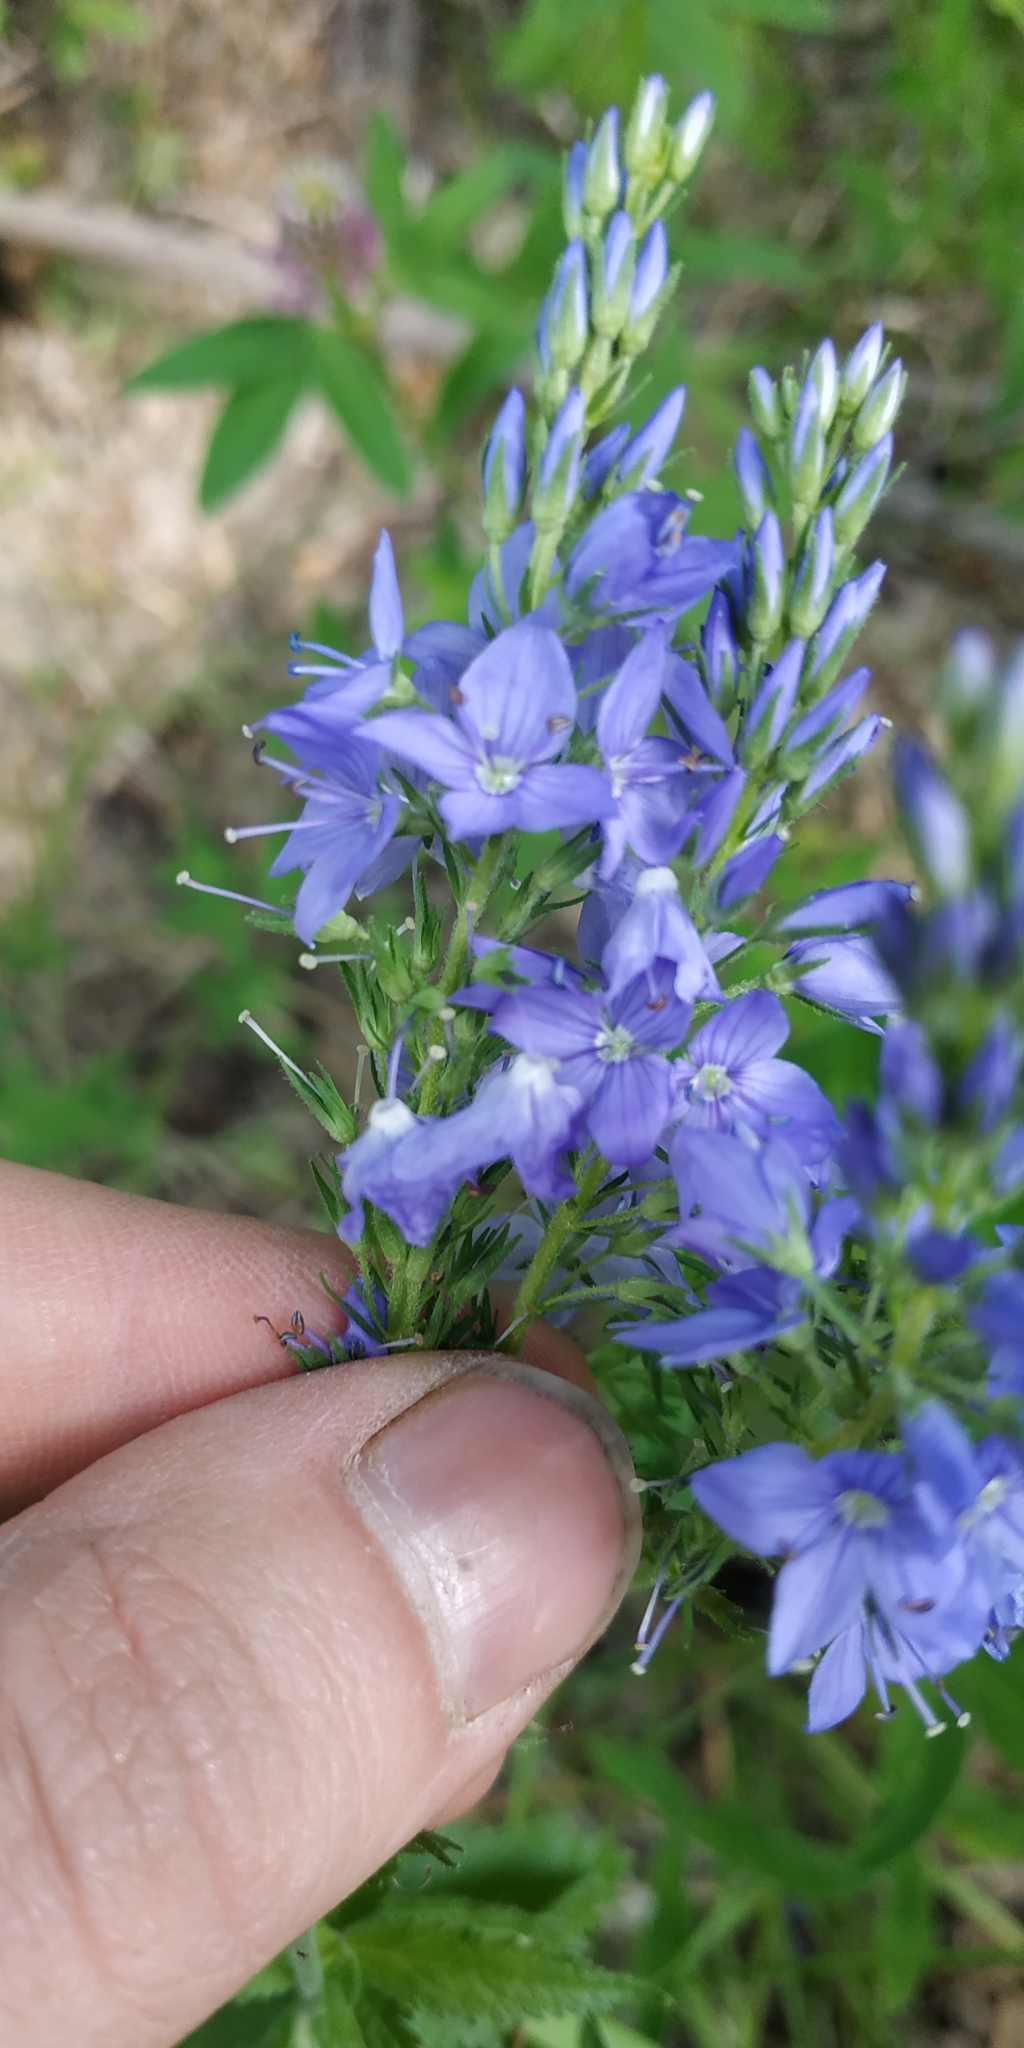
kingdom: Plantae
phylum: Tracheophyta
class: Magnoliopsida
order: Lamiales
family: Plantaginaceae
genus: Veronica
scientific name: Veronica teucrium
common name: Large speedwell
